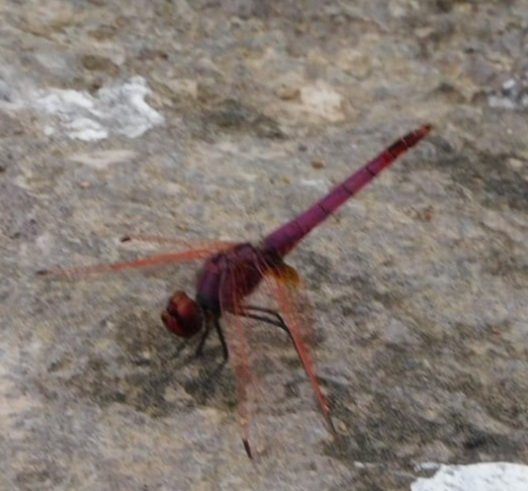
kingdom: Animalia
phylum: Arthropoda
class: Insecta
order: Odonata
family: Libellulidae
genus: Trithemis
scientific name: Trithemis annulata
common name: Violet dropwing
